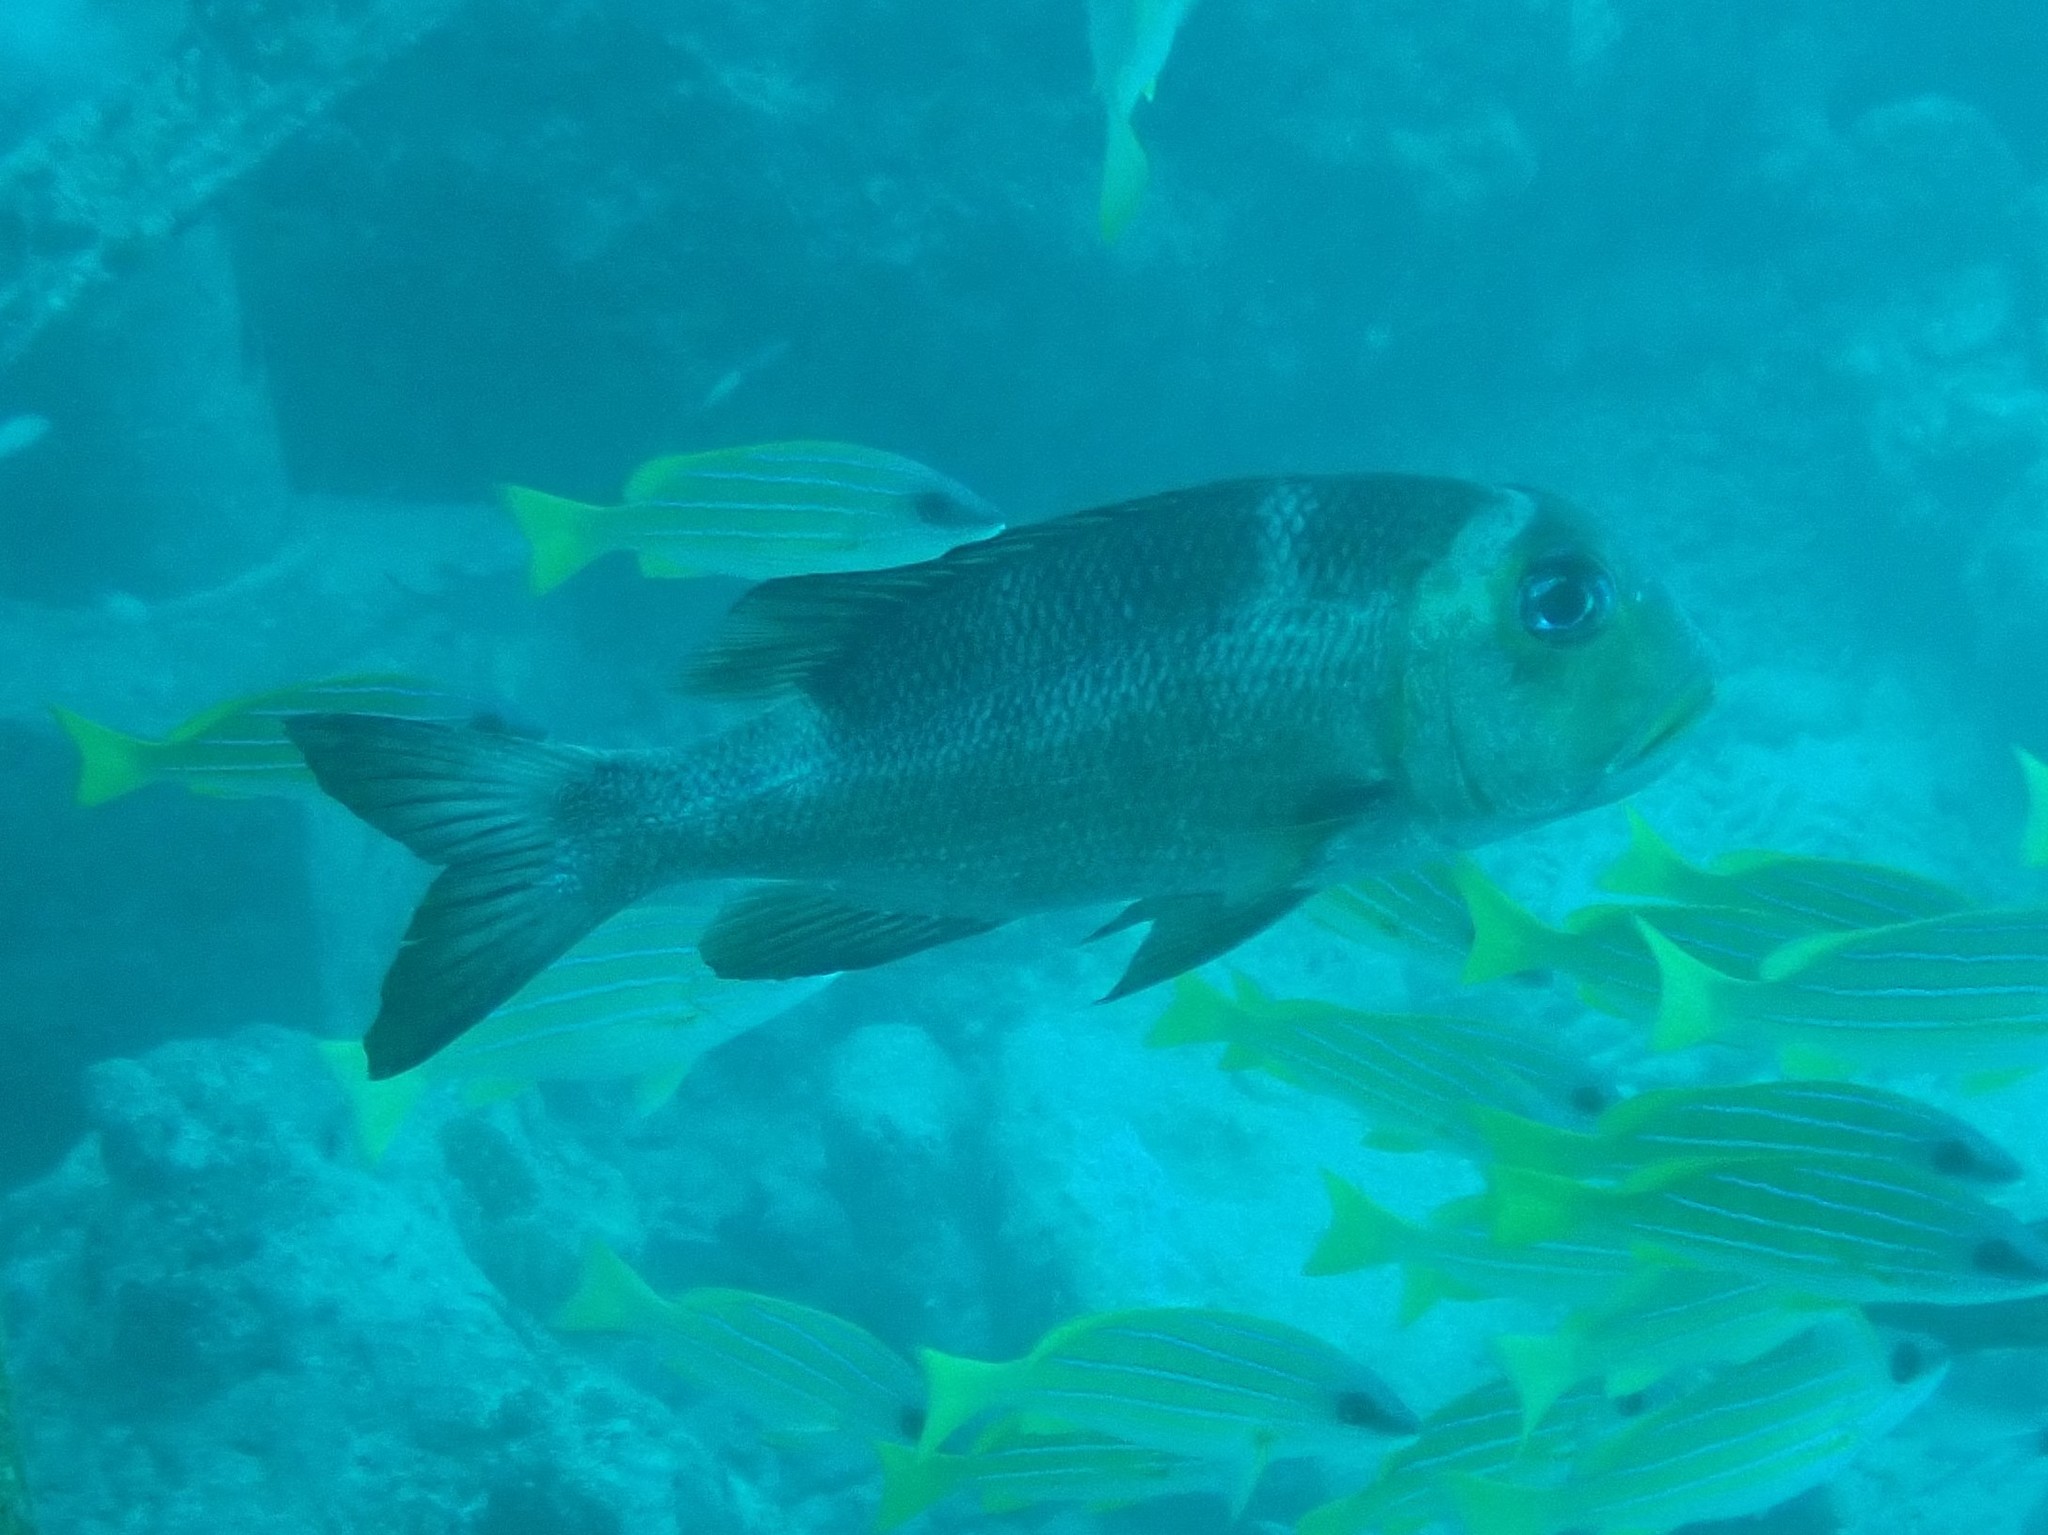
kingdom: Animalia
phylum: Chordata
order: Perciformes
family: Lethrinidae
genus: Monotaxis
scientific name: Monotaxis grandoculis
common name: Bigeye emperor
